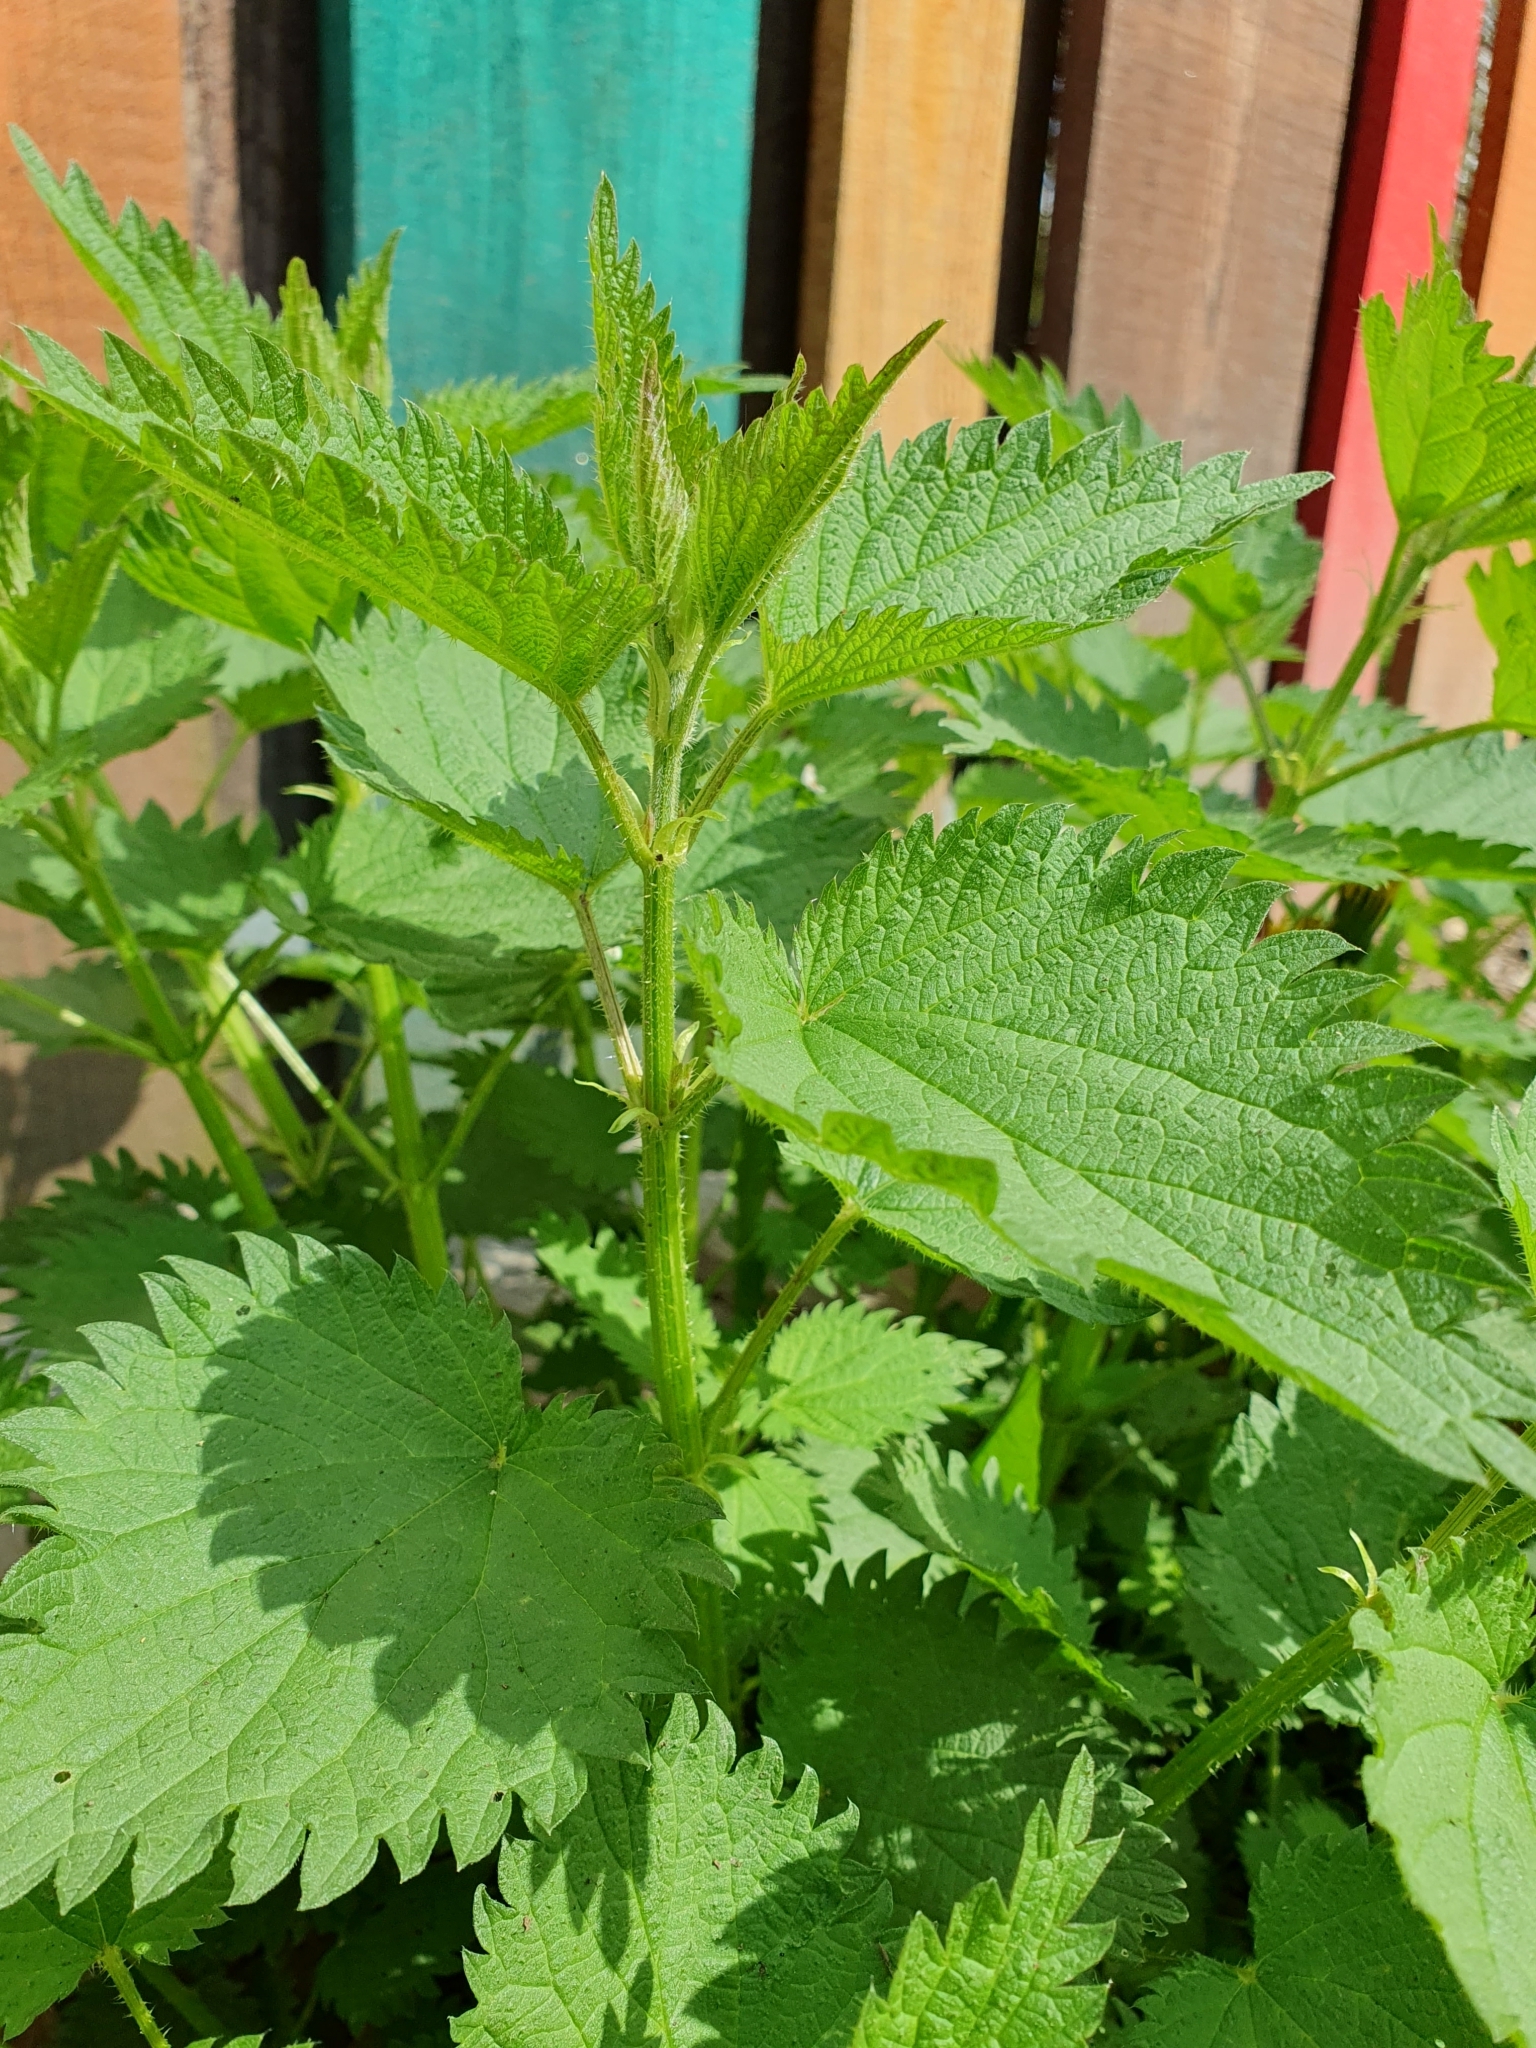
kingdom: Plantae
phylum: Tracheophyta
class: Magnoliopsida
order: Rosales
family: Urticaceae
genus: Urtica
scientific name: Urtica dioica
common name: Common nettle
